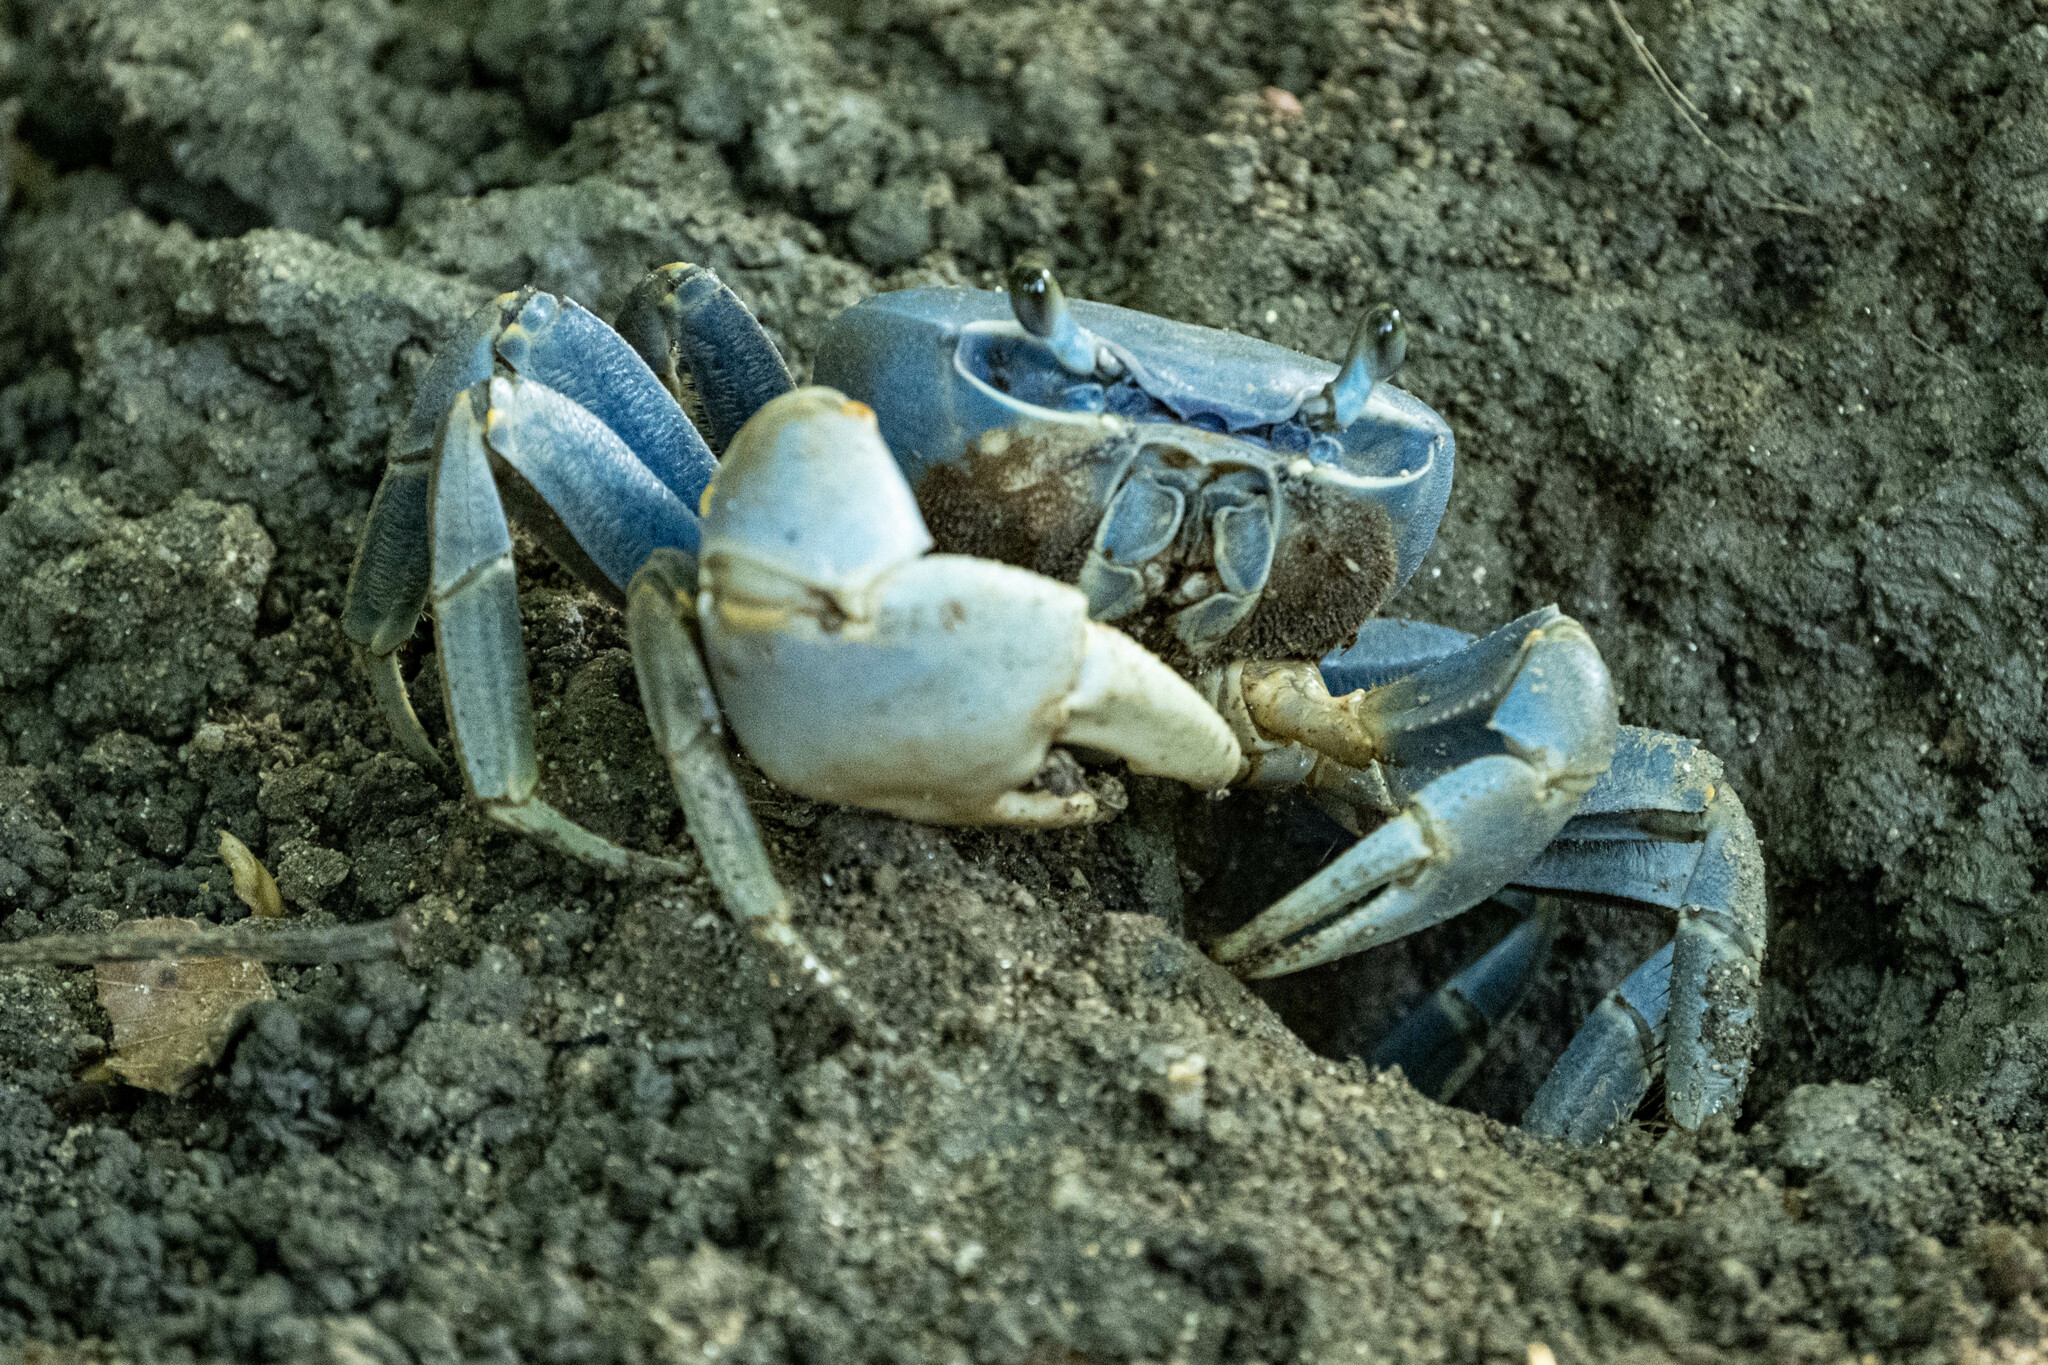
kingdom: Animalia
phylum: Arthropoda
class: Malacostraca
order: Decapoda
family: Gecarcinidae
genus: Cardisoma
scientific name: Cardisoma guanhumi
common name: Great land crab
